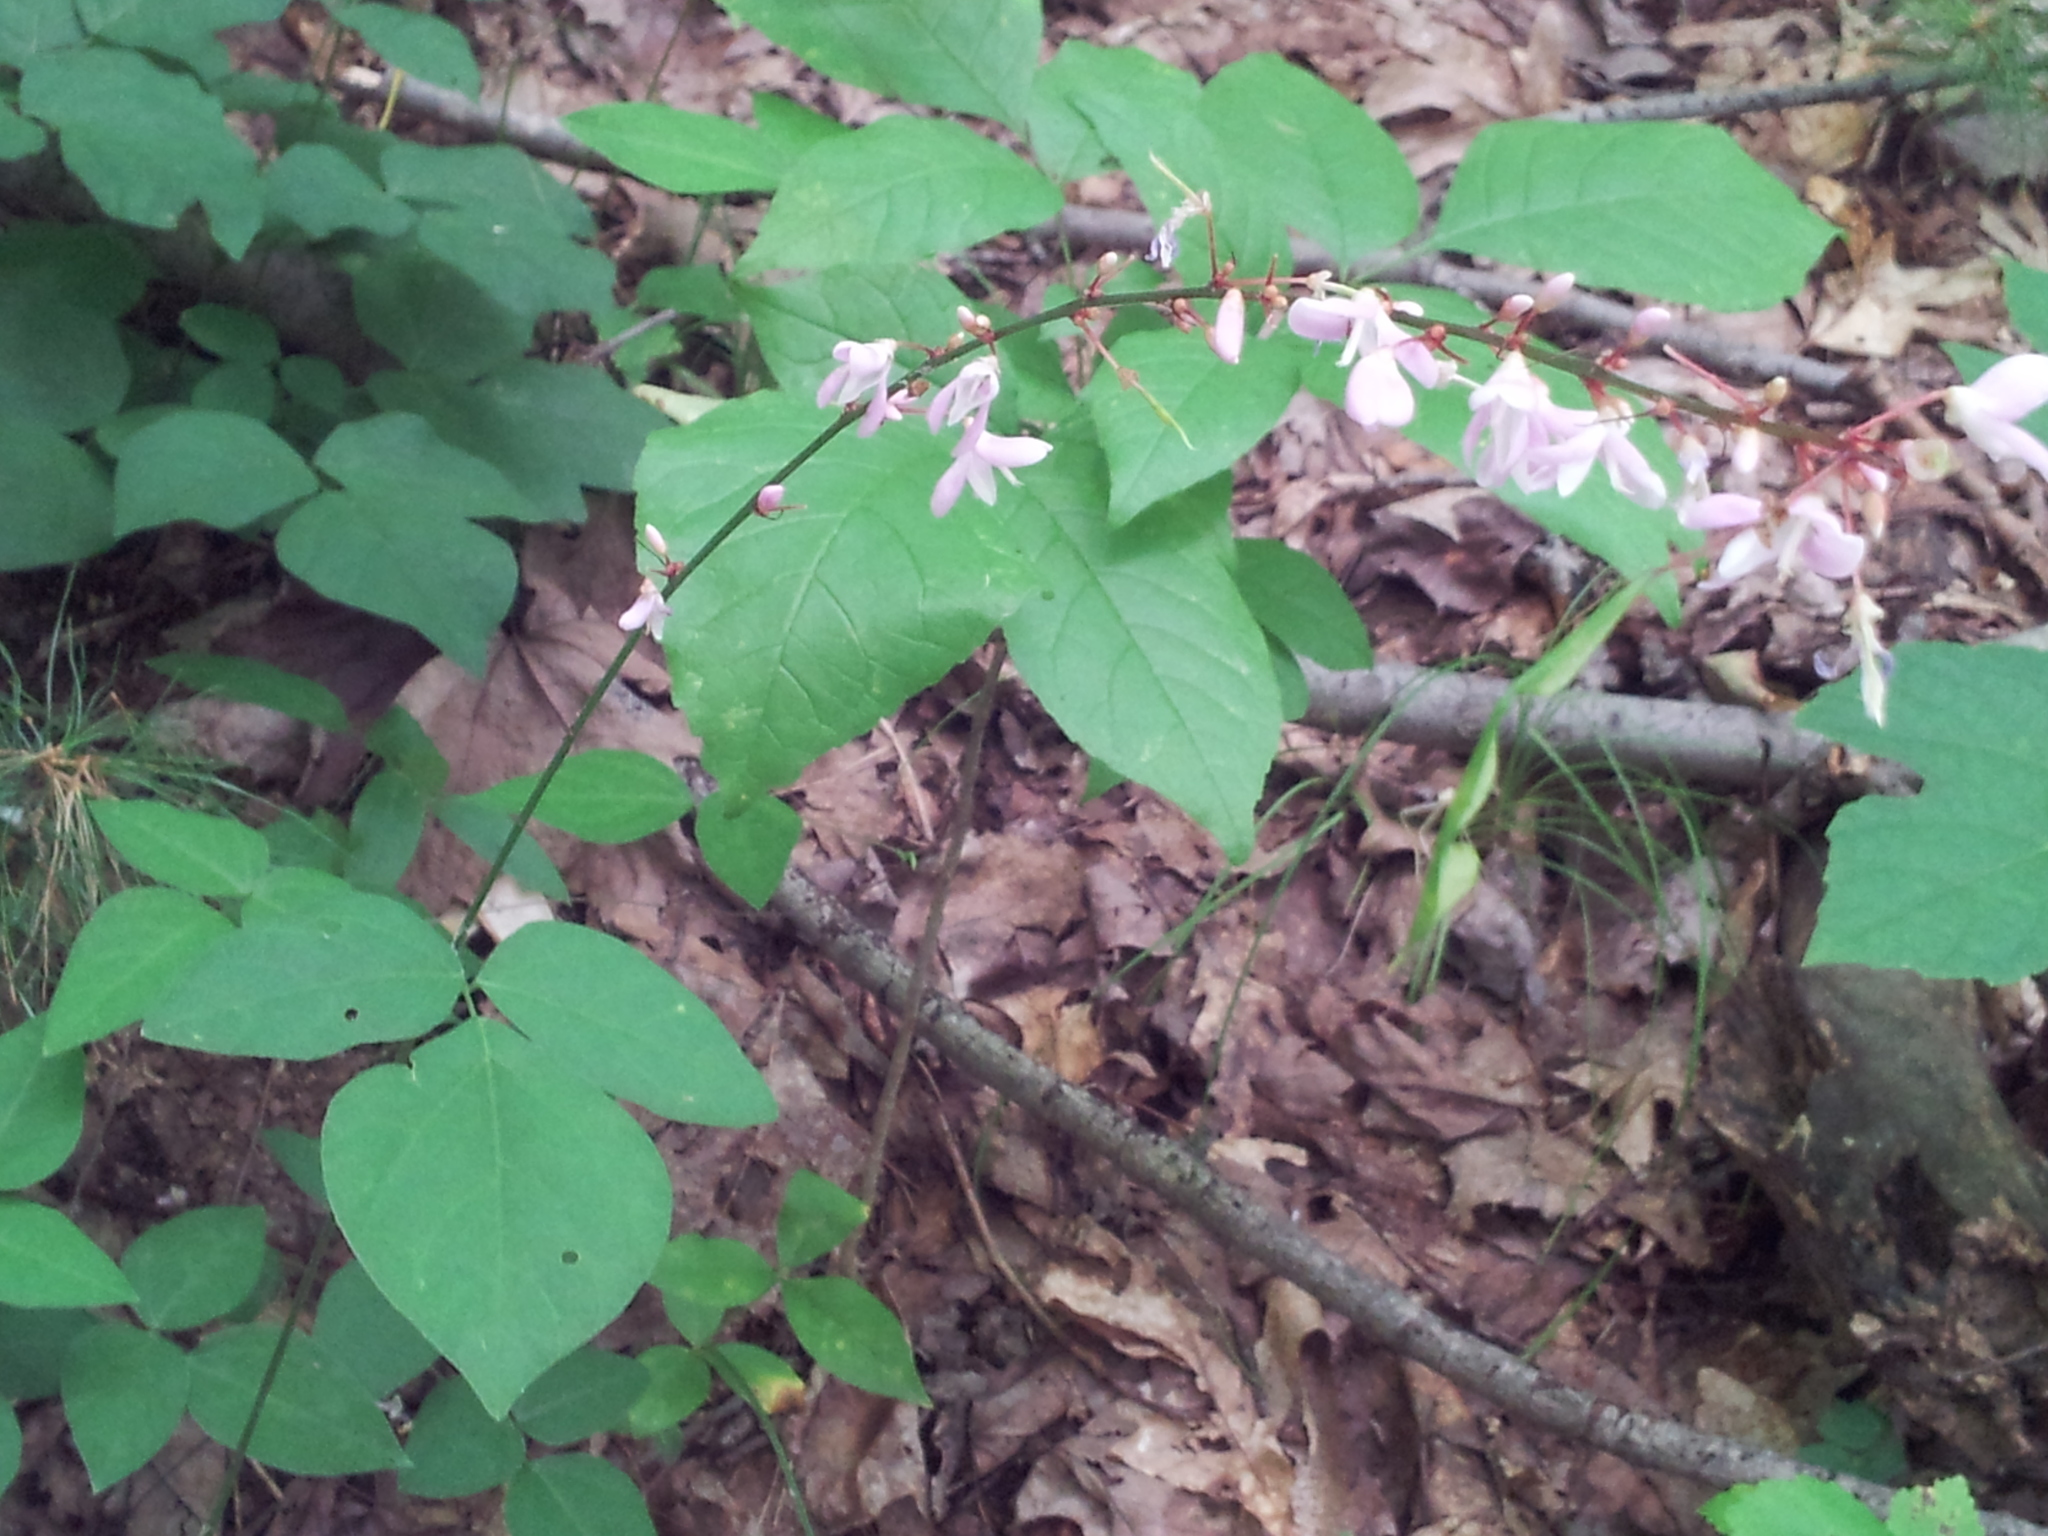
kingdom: Plantae
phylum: Tracheophyta
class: Magnoliopsida
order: Fabales
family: Fabaceae
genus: Hylodesmum
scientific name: Hylodesmum nudiflorum
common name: Bare-stemmed tick-trefoil
